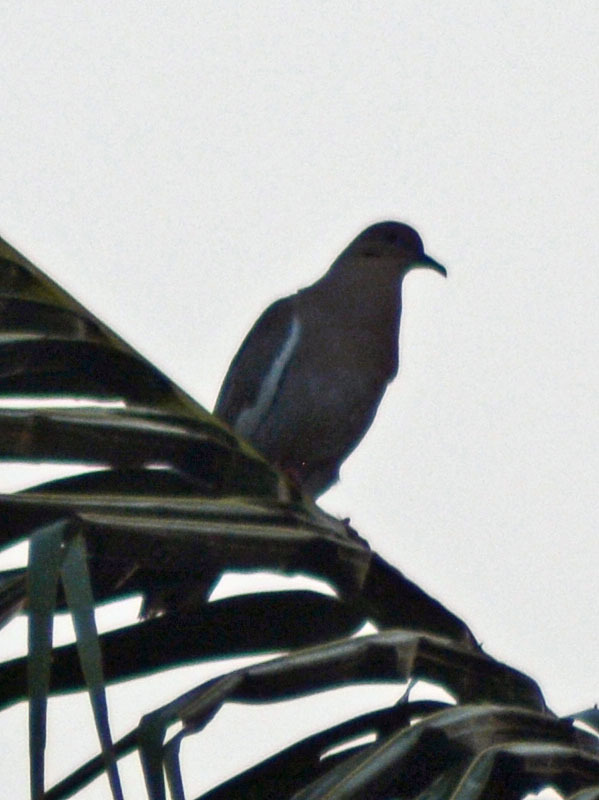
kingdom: Animalia
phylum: Chordata
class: Aves
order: Columbiformes
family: Columbidae
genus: Zenaida
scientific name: Zenaida asiatica
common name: White-winged dove
